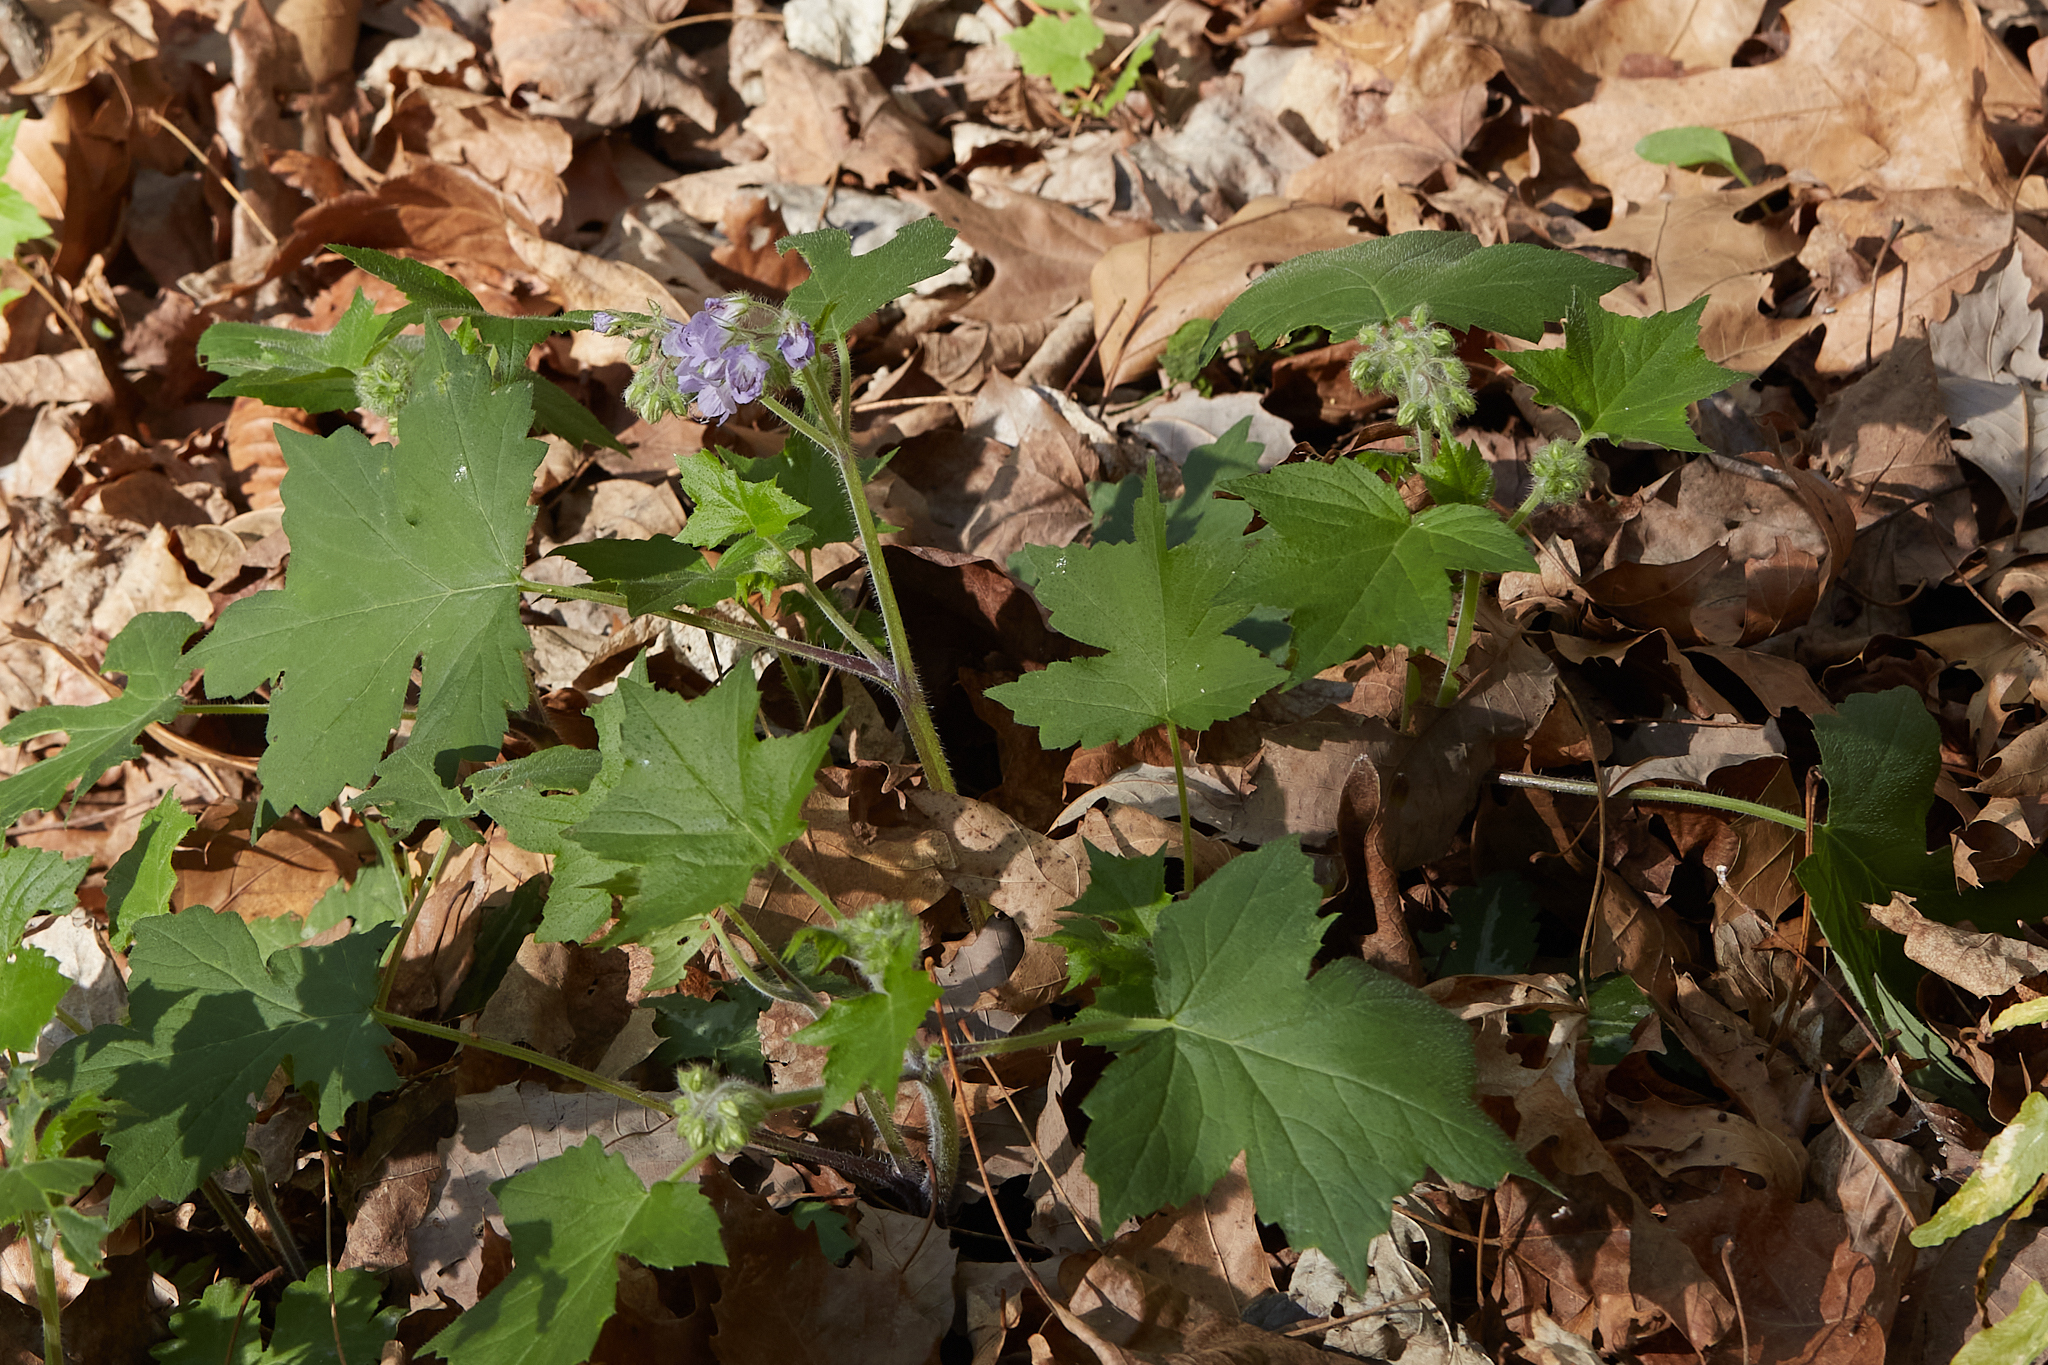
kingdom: Plantae
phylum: Tracheophyta
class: Magnoliopsida
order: Boraginales
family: Hydrophyllaceae
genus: Hydrophyllum
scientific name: Hydrophyllum appendiculatum
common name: Appendaged waterleaf
